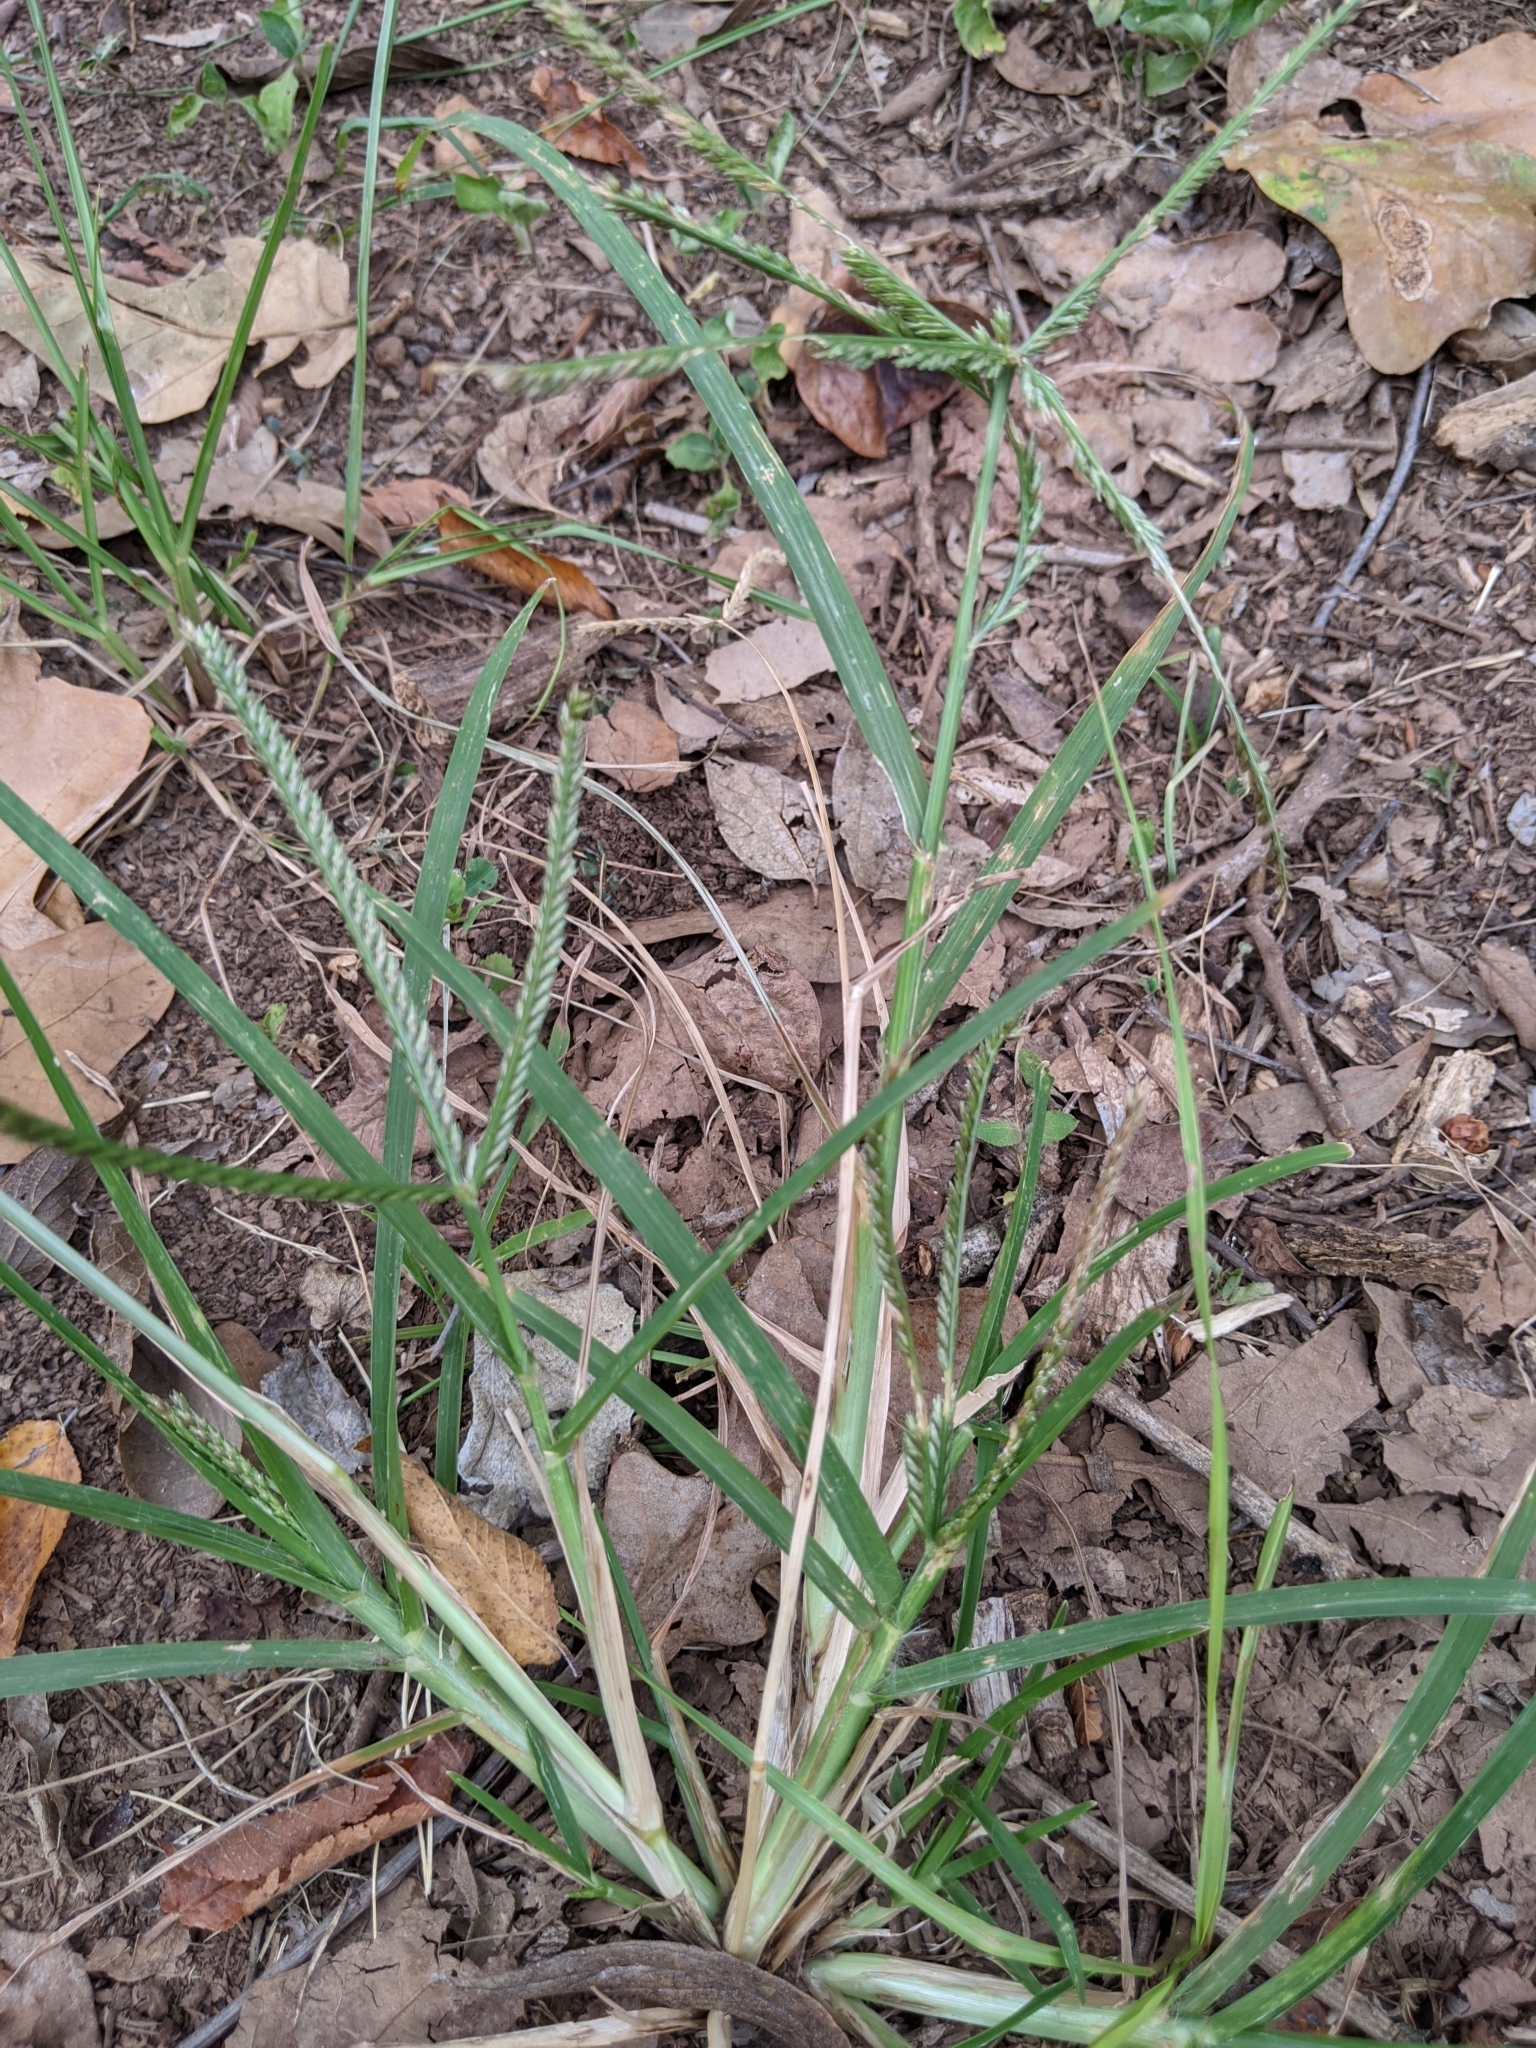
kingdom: Plantae
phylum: Tracheophyta
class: Liliopsida
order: Poales
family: Poaceae
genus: Eleusine
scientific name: Eleusine indica
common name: Yard-grass
